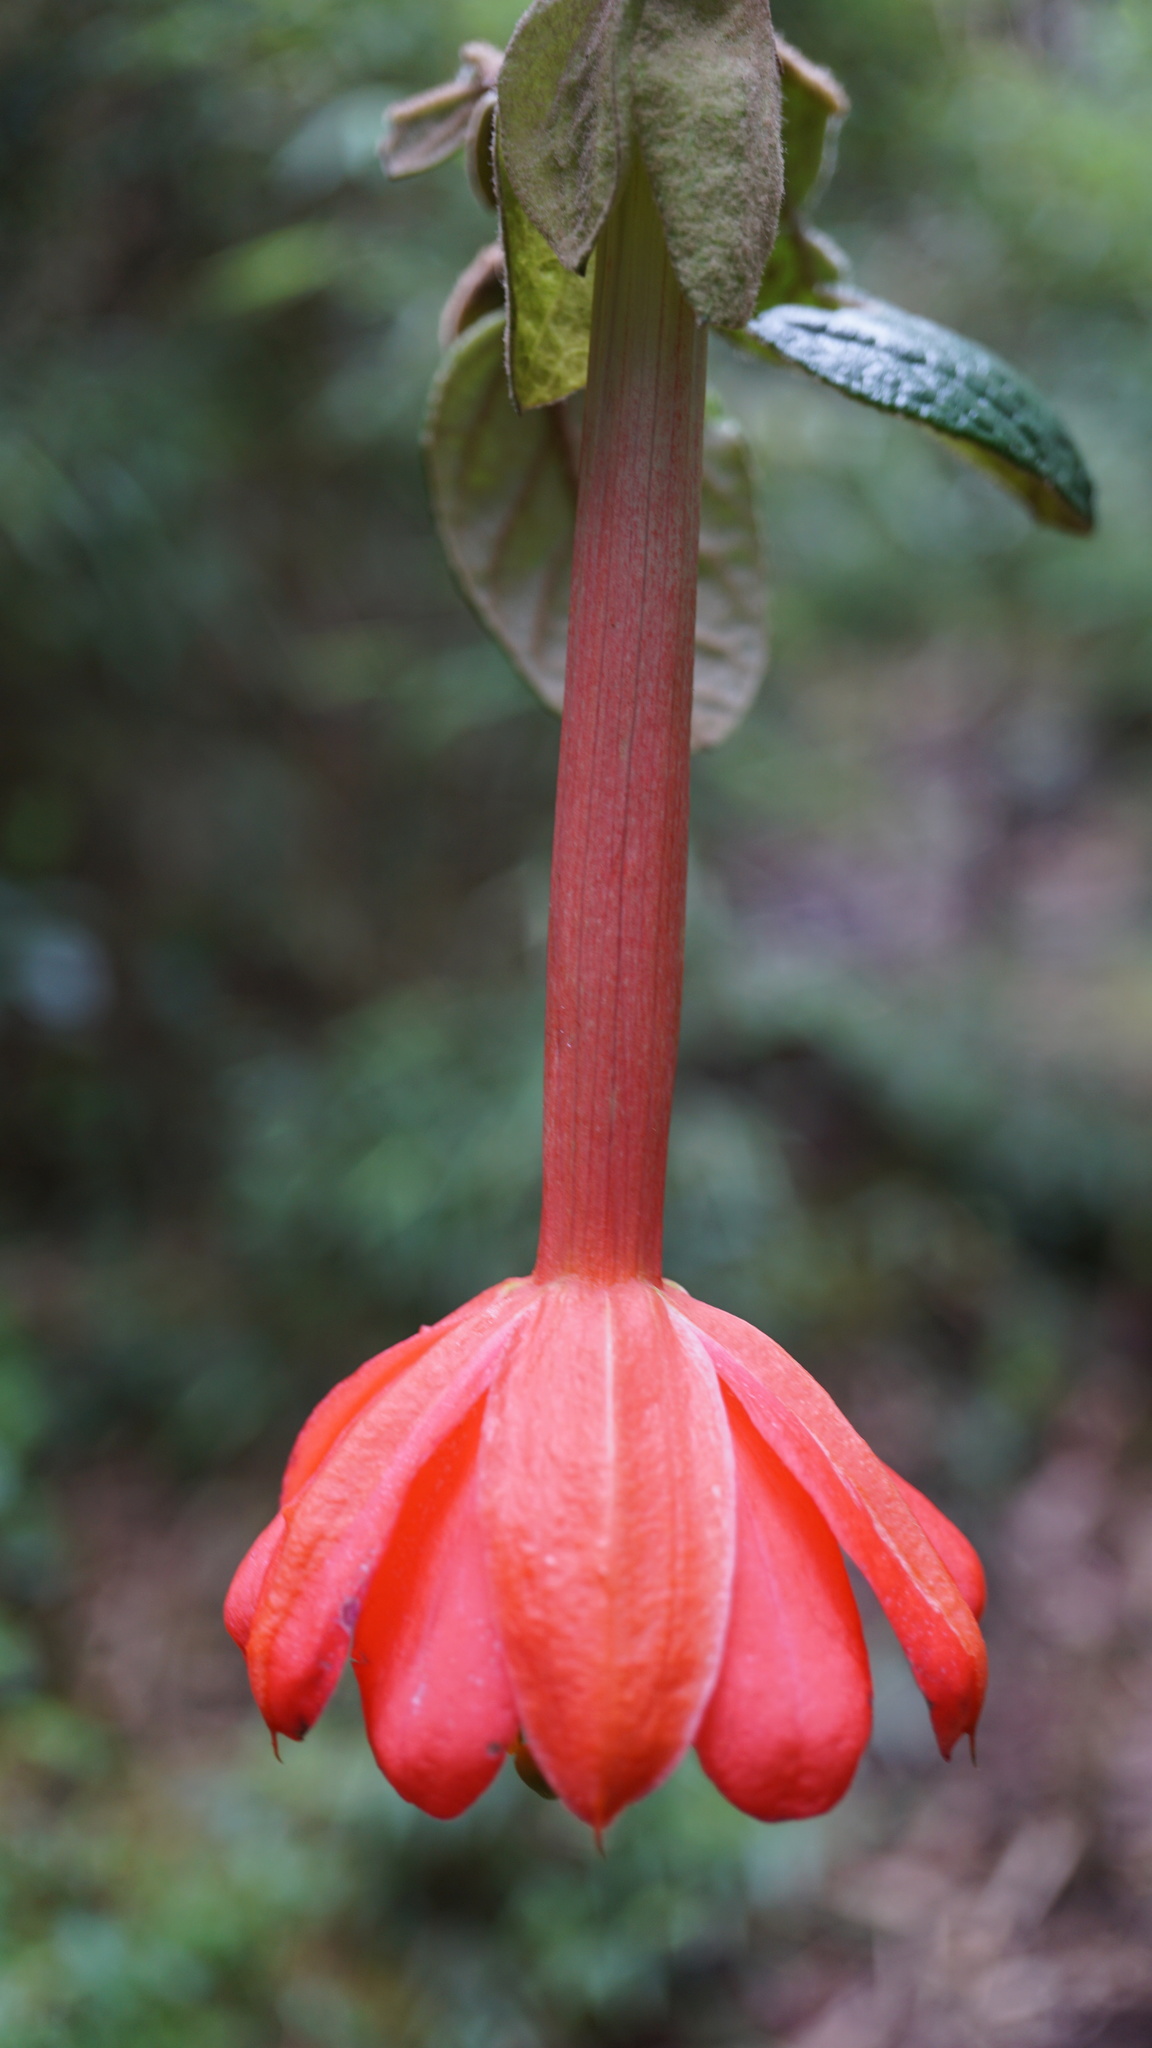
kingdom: Plantae
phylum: Tracheophyta
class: Magnoliopsida
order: Malpighiales
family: Passifloraceae
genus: Passiflora
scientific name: Passiflora adulterina
